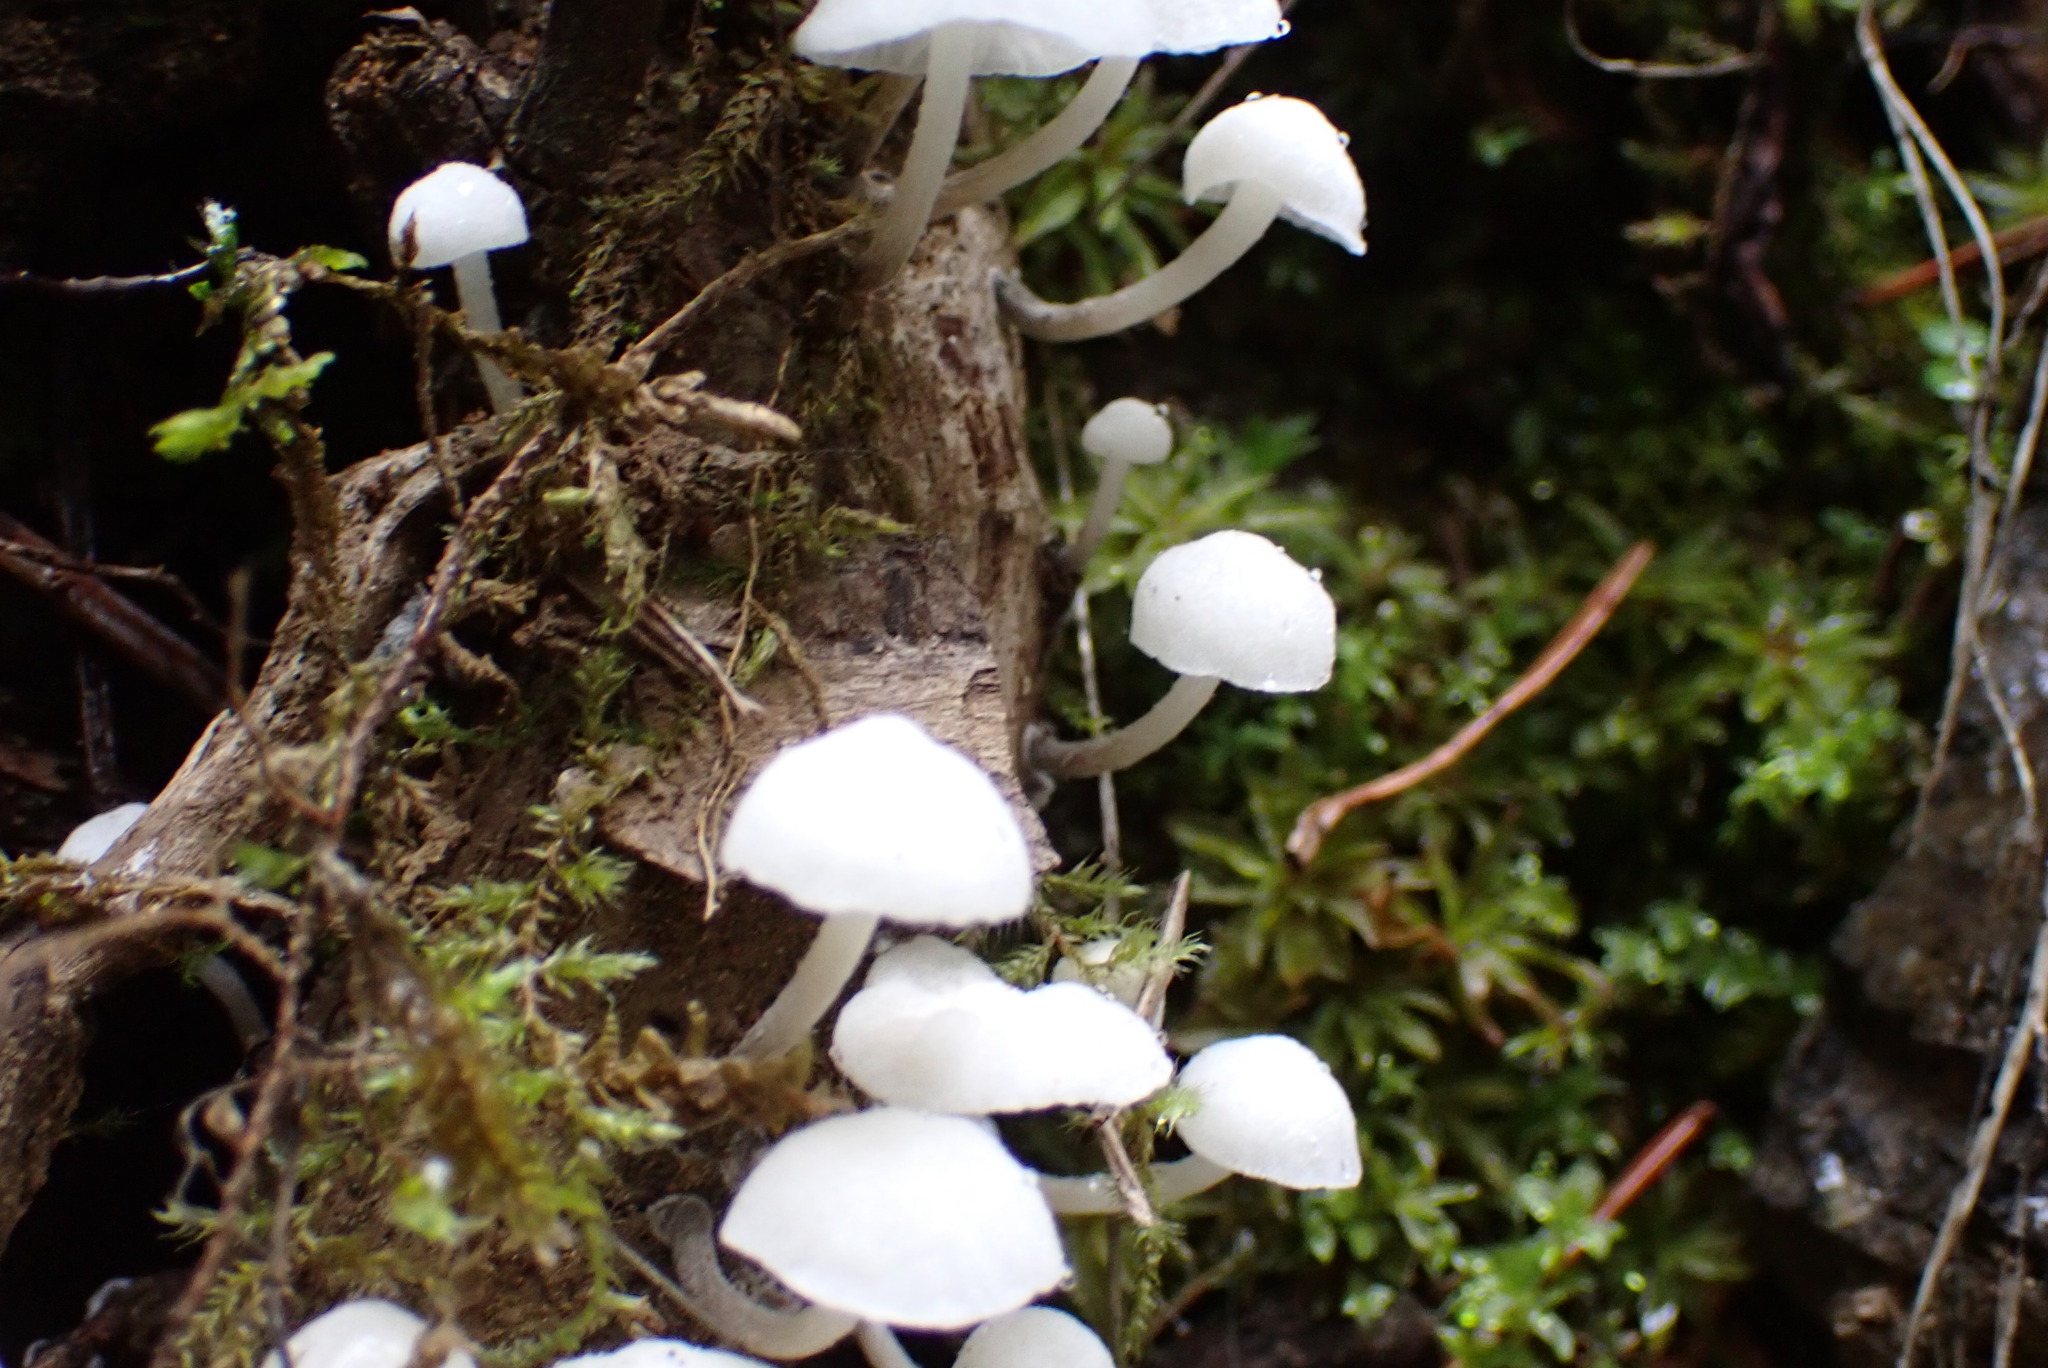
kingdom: Fungi
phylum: Basidiomycota
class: Agaricomycetes
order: Agaricales
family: Omphalotaceae
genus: Marasmiellus
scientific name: Marasmiellus candidus
